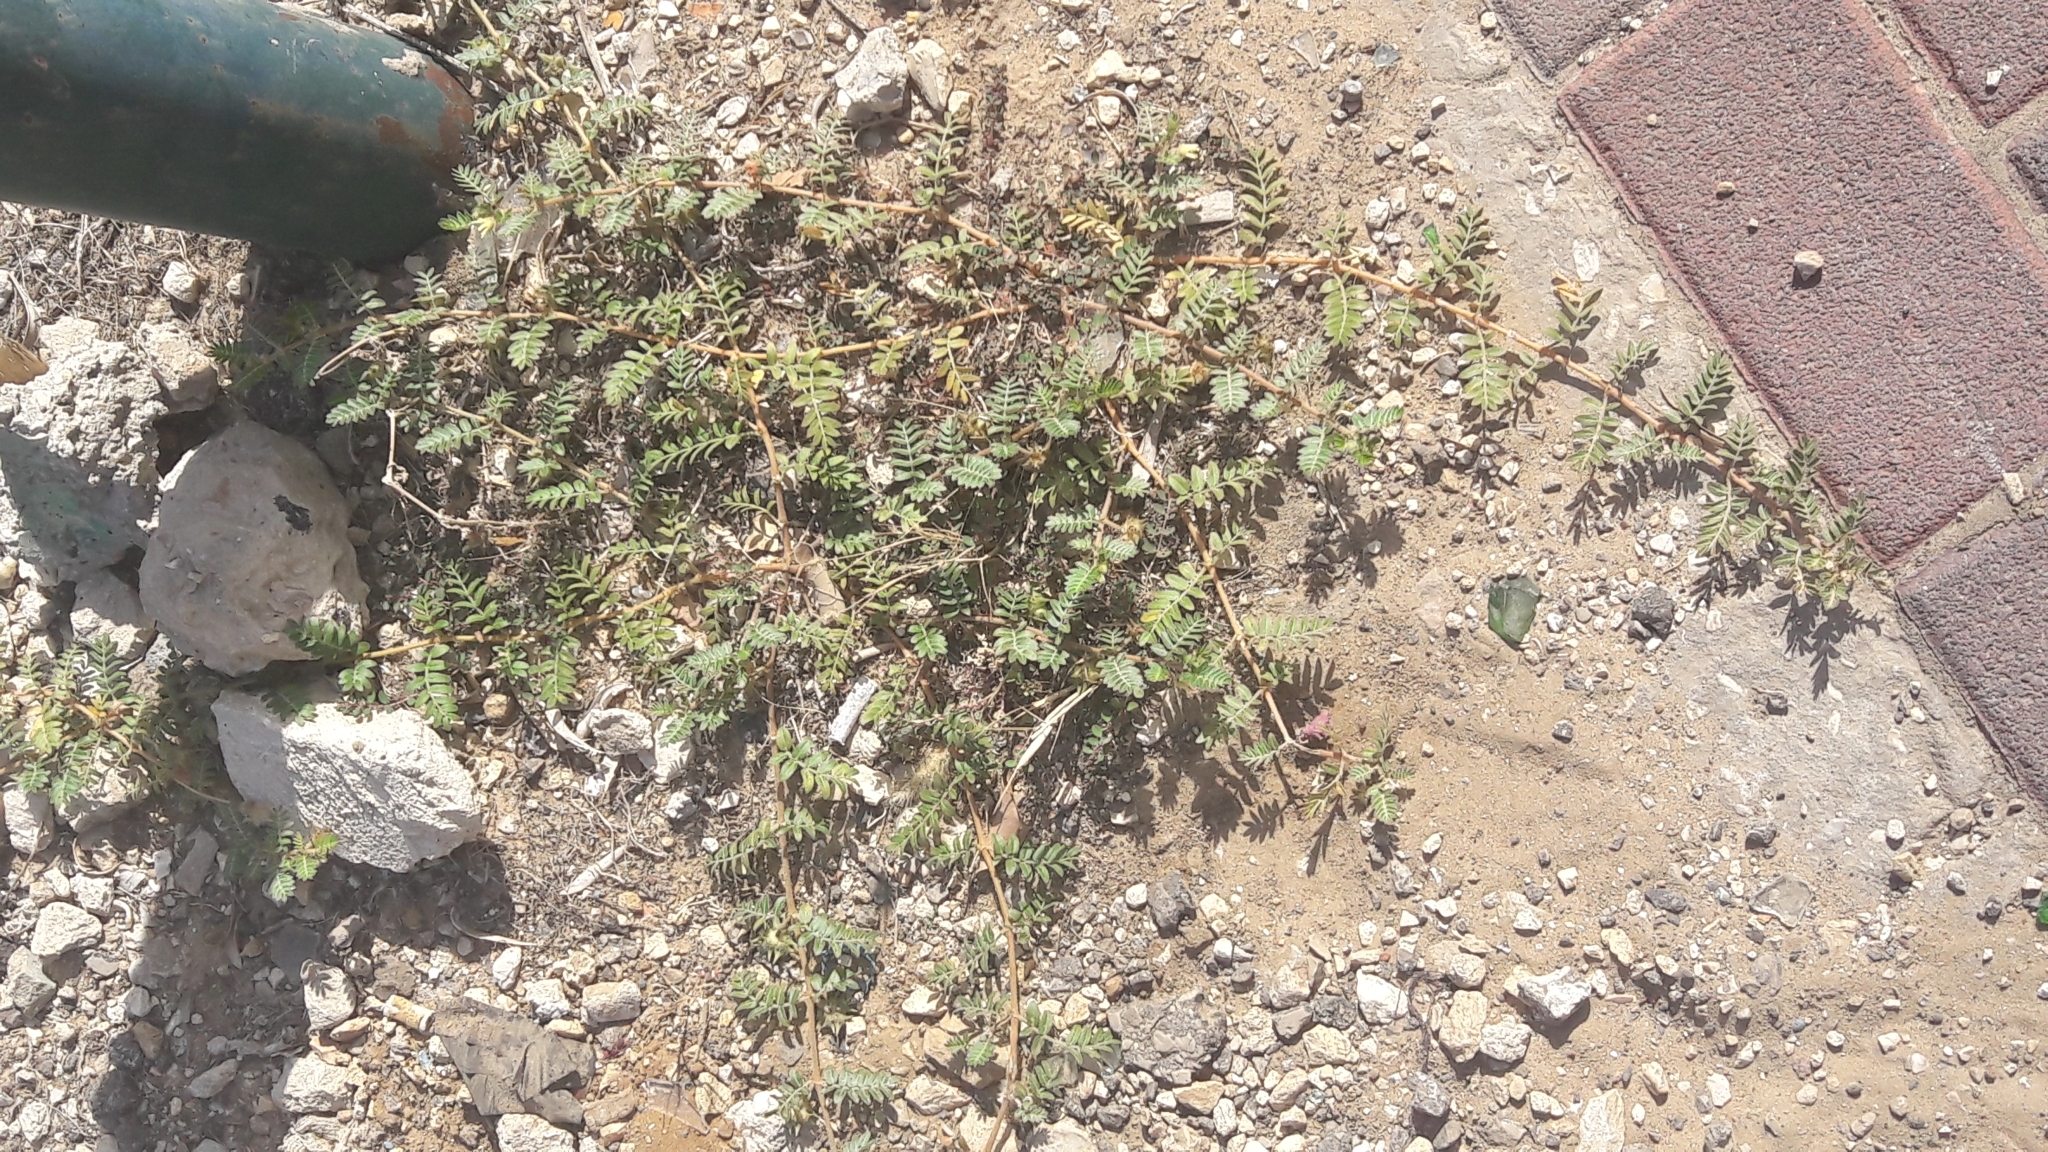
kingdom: Plantae
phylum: Tracheophyta
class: Magnoliopsida
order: Zygophyllales
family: Zygophyllaceae
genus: Tribulus
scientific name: Tribulus terrestris
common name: Puncturevine
